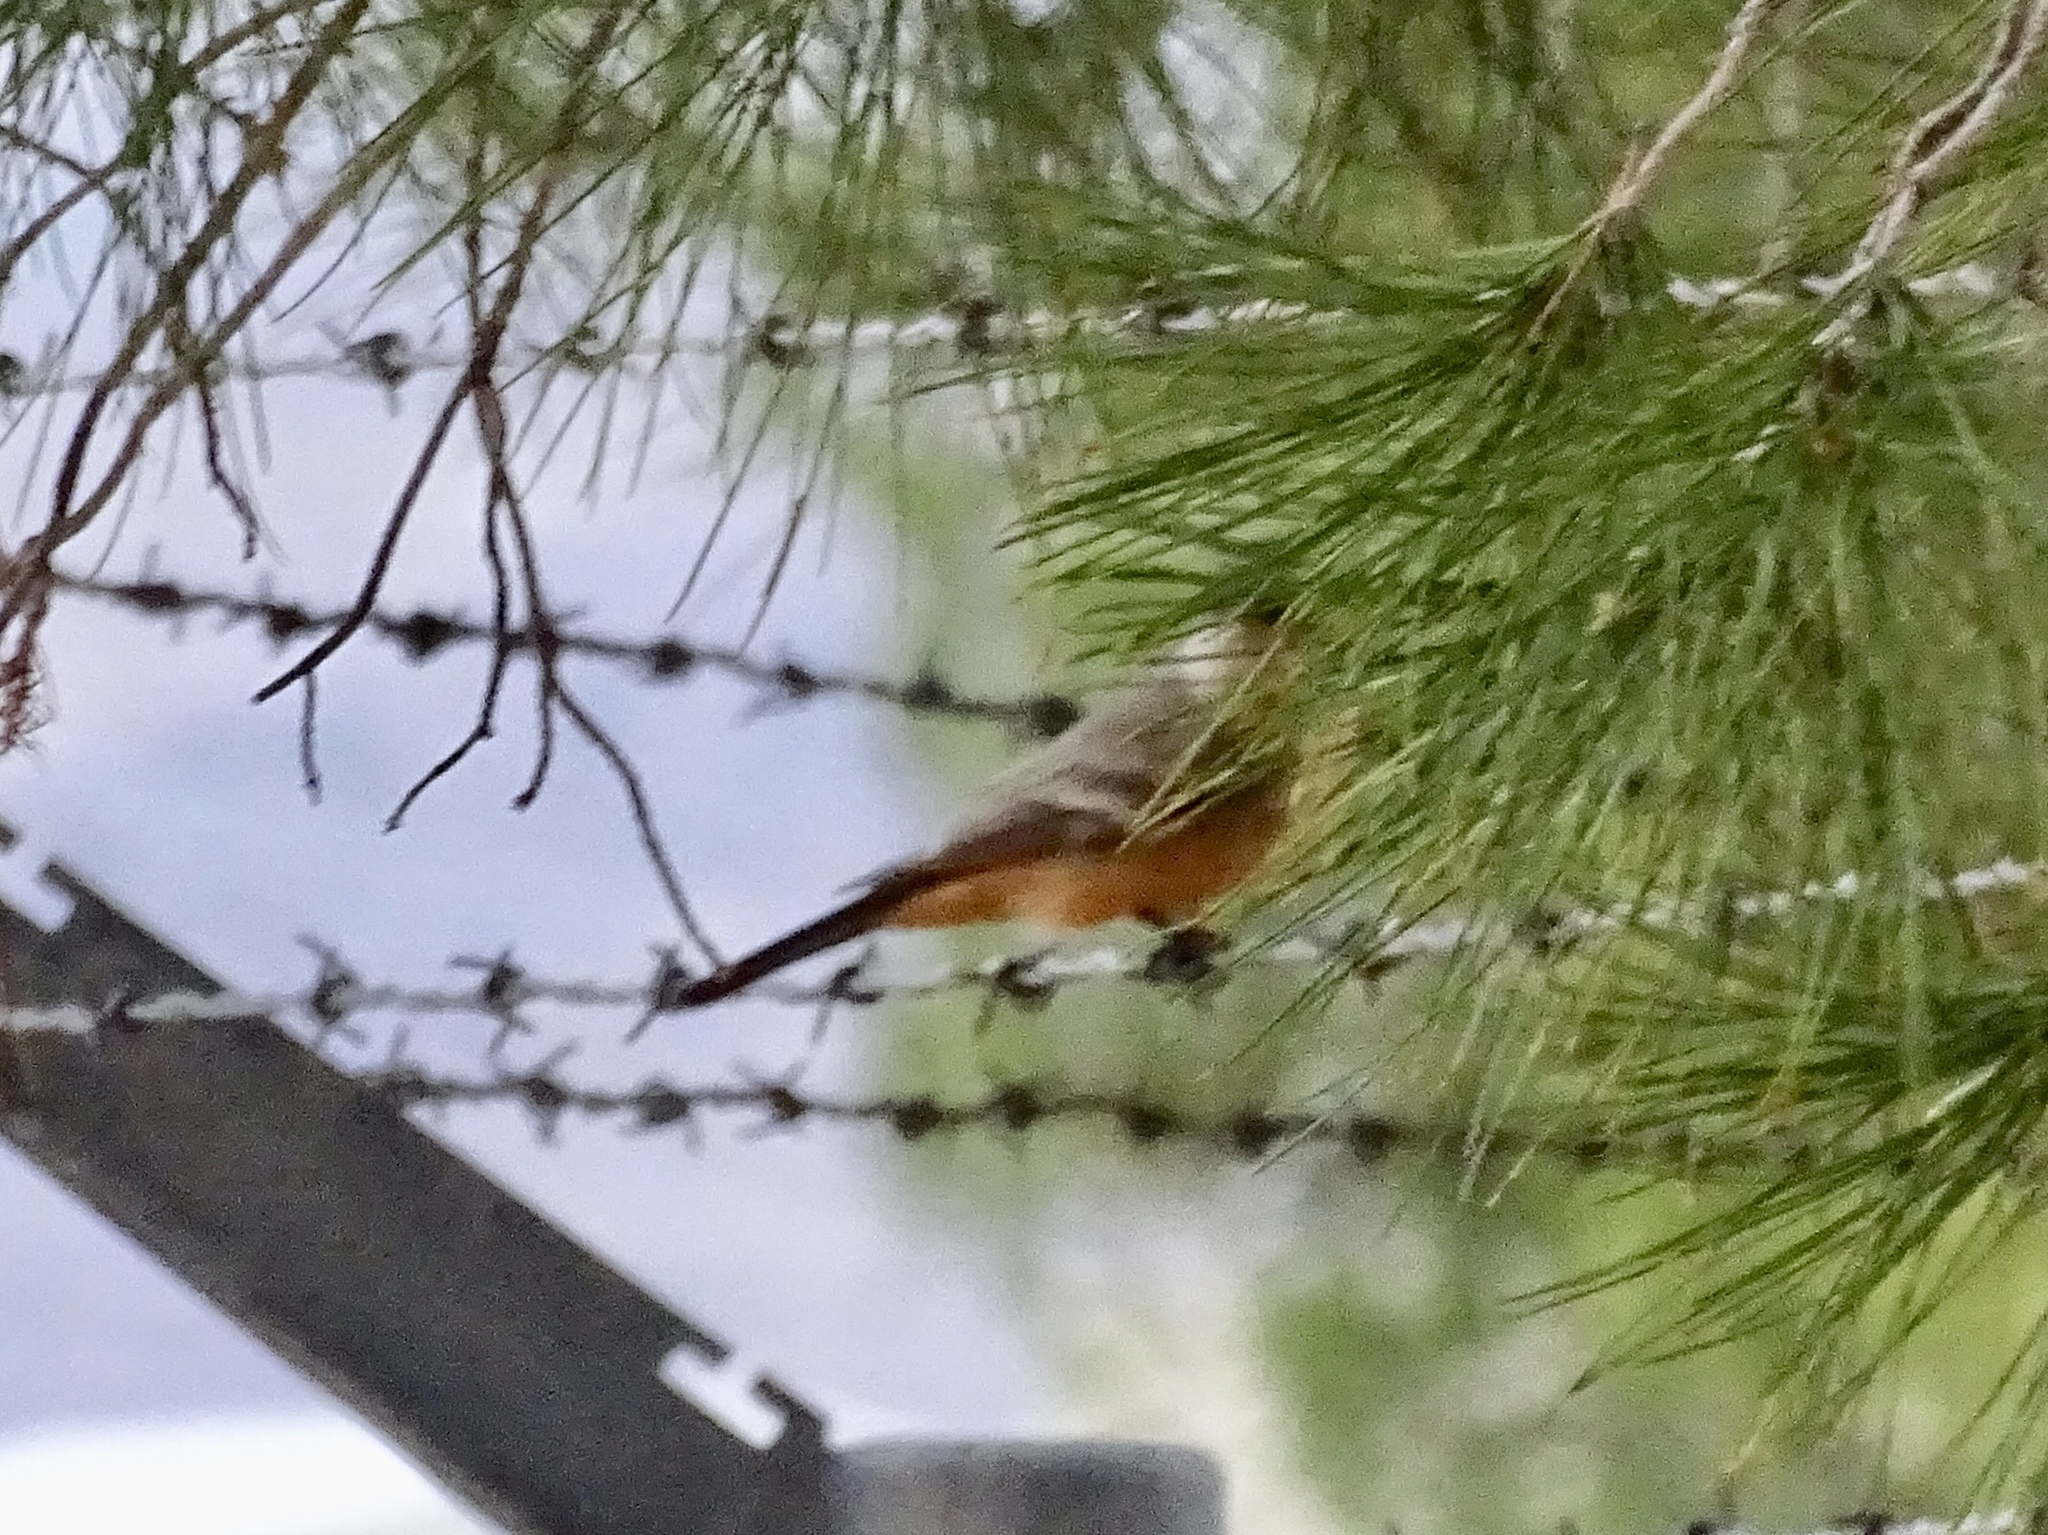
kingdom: Animalia
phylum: Chordata
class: Aves
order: Passeriformes
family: Tyrannidae
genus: Sayornis
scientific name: Sayornis saya
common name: Say's phoebe
